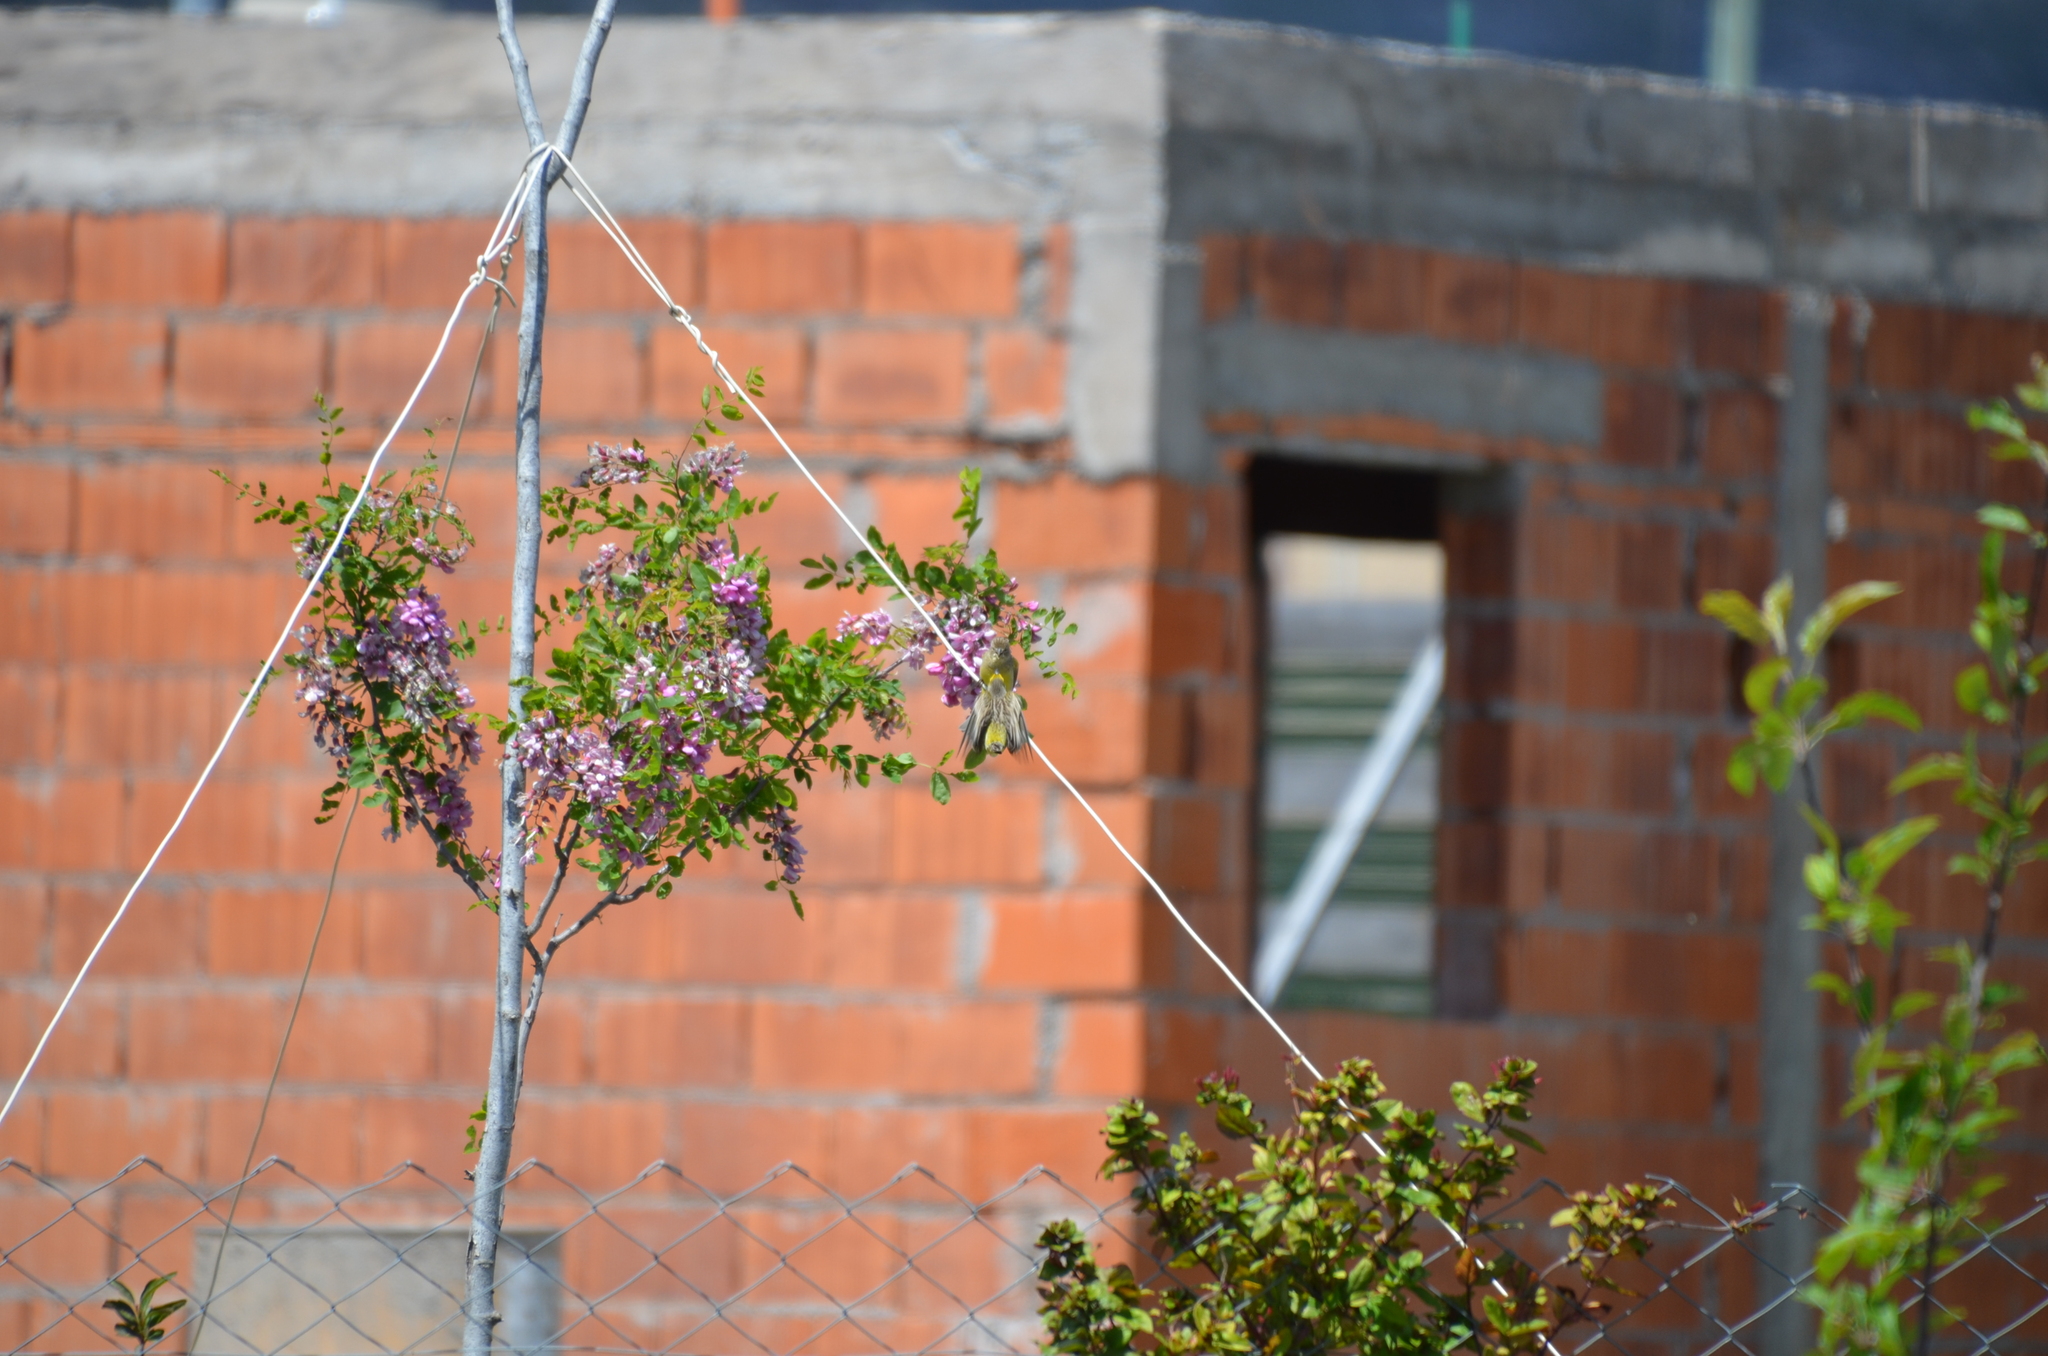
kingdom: Animalia
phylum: Chordata
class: Aves
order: Passeriformes
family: Thraupidae
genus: Sicalis
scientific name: Sicalis luteola
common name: Grassland yellow-finch
